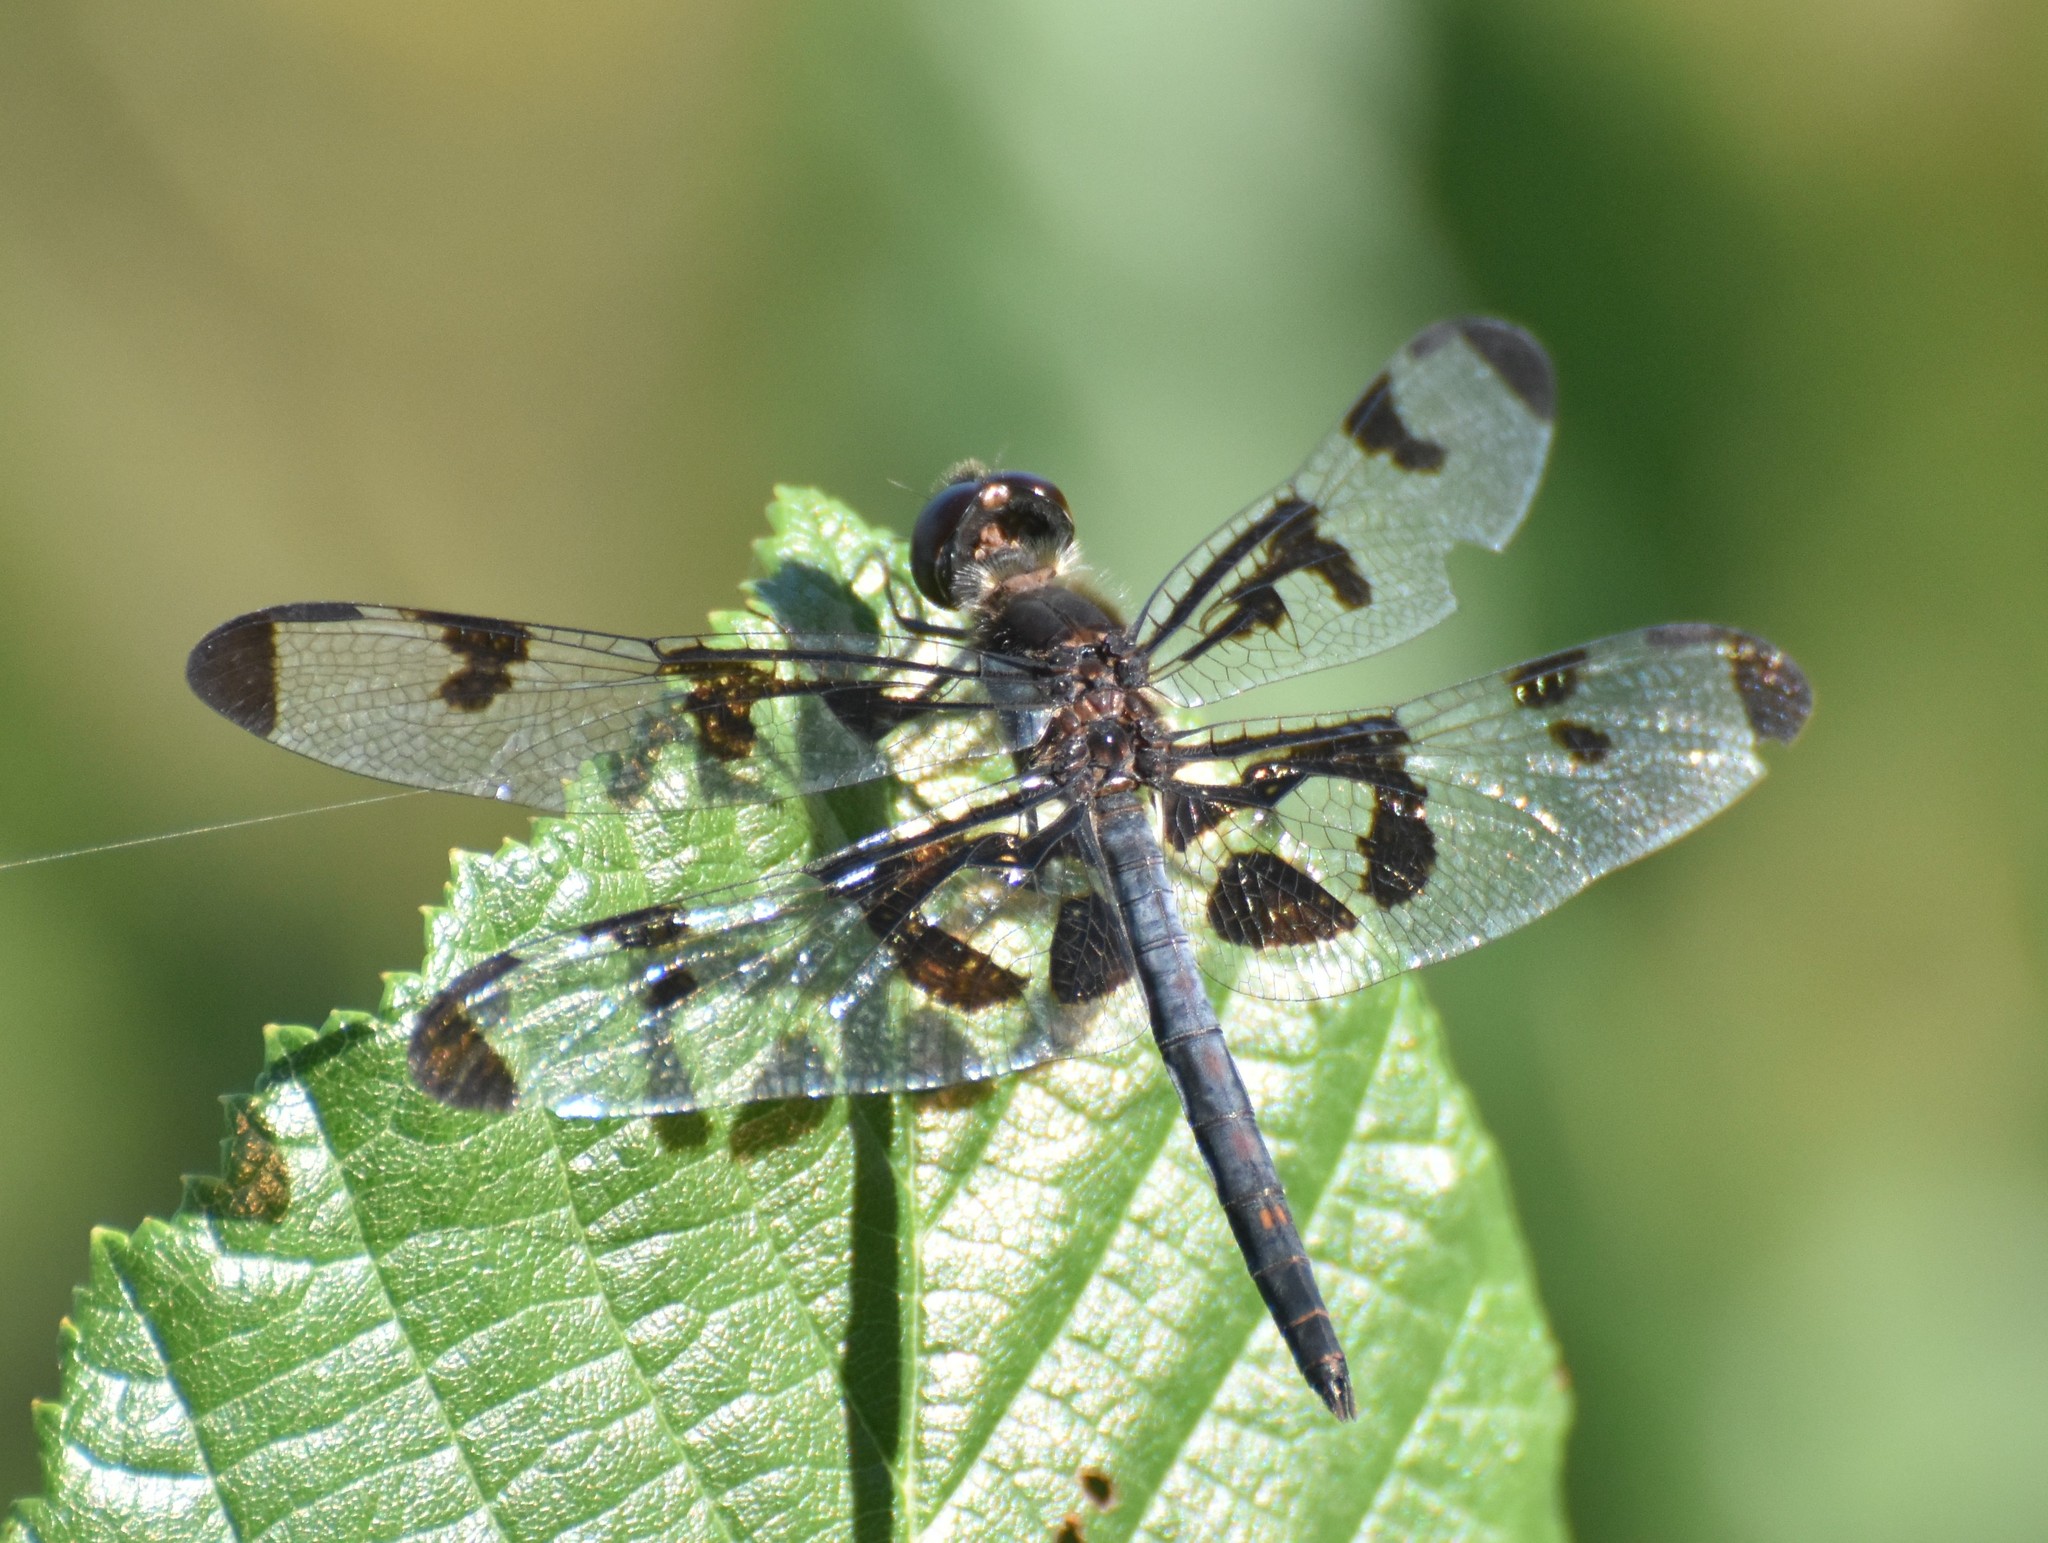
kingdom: Animalia
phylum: Arthropoda
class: Insecta
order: Odonata
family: Libellulidae
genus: Celithemis
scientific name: Celithemis fasciata
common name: Banded pennant
